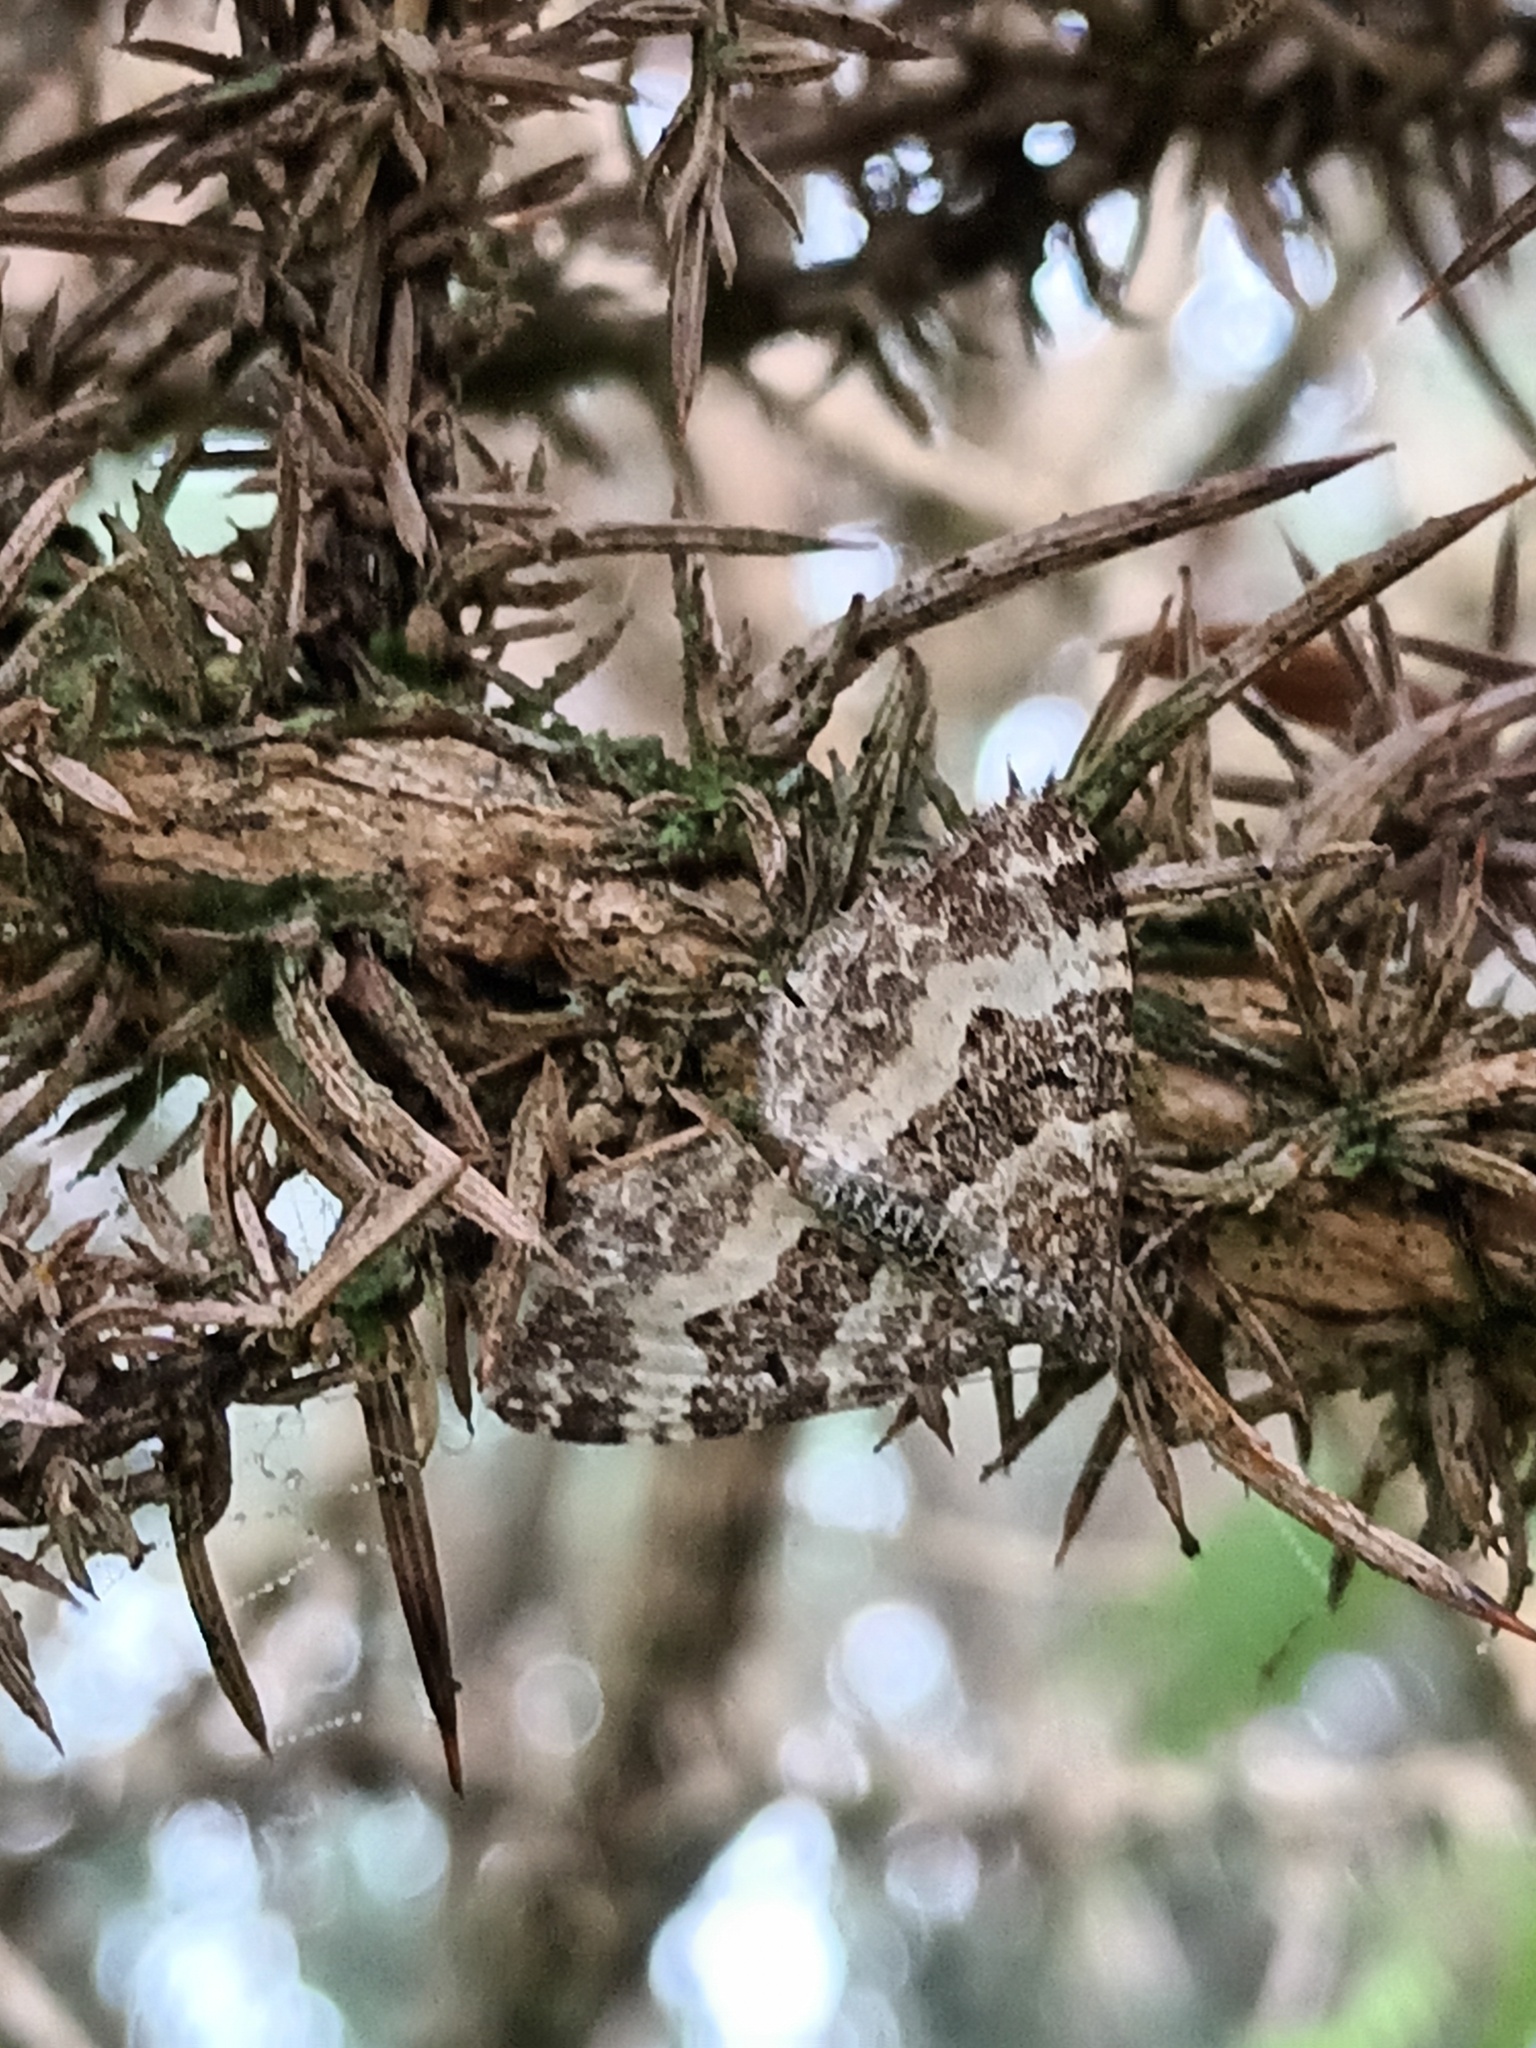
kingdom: Animalia
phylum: Arthropoda
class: Insecta
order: Lepidoptera
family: Geometridae
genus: Epirrhoe
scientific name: Epirrhoe alternata
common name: Common carpet
